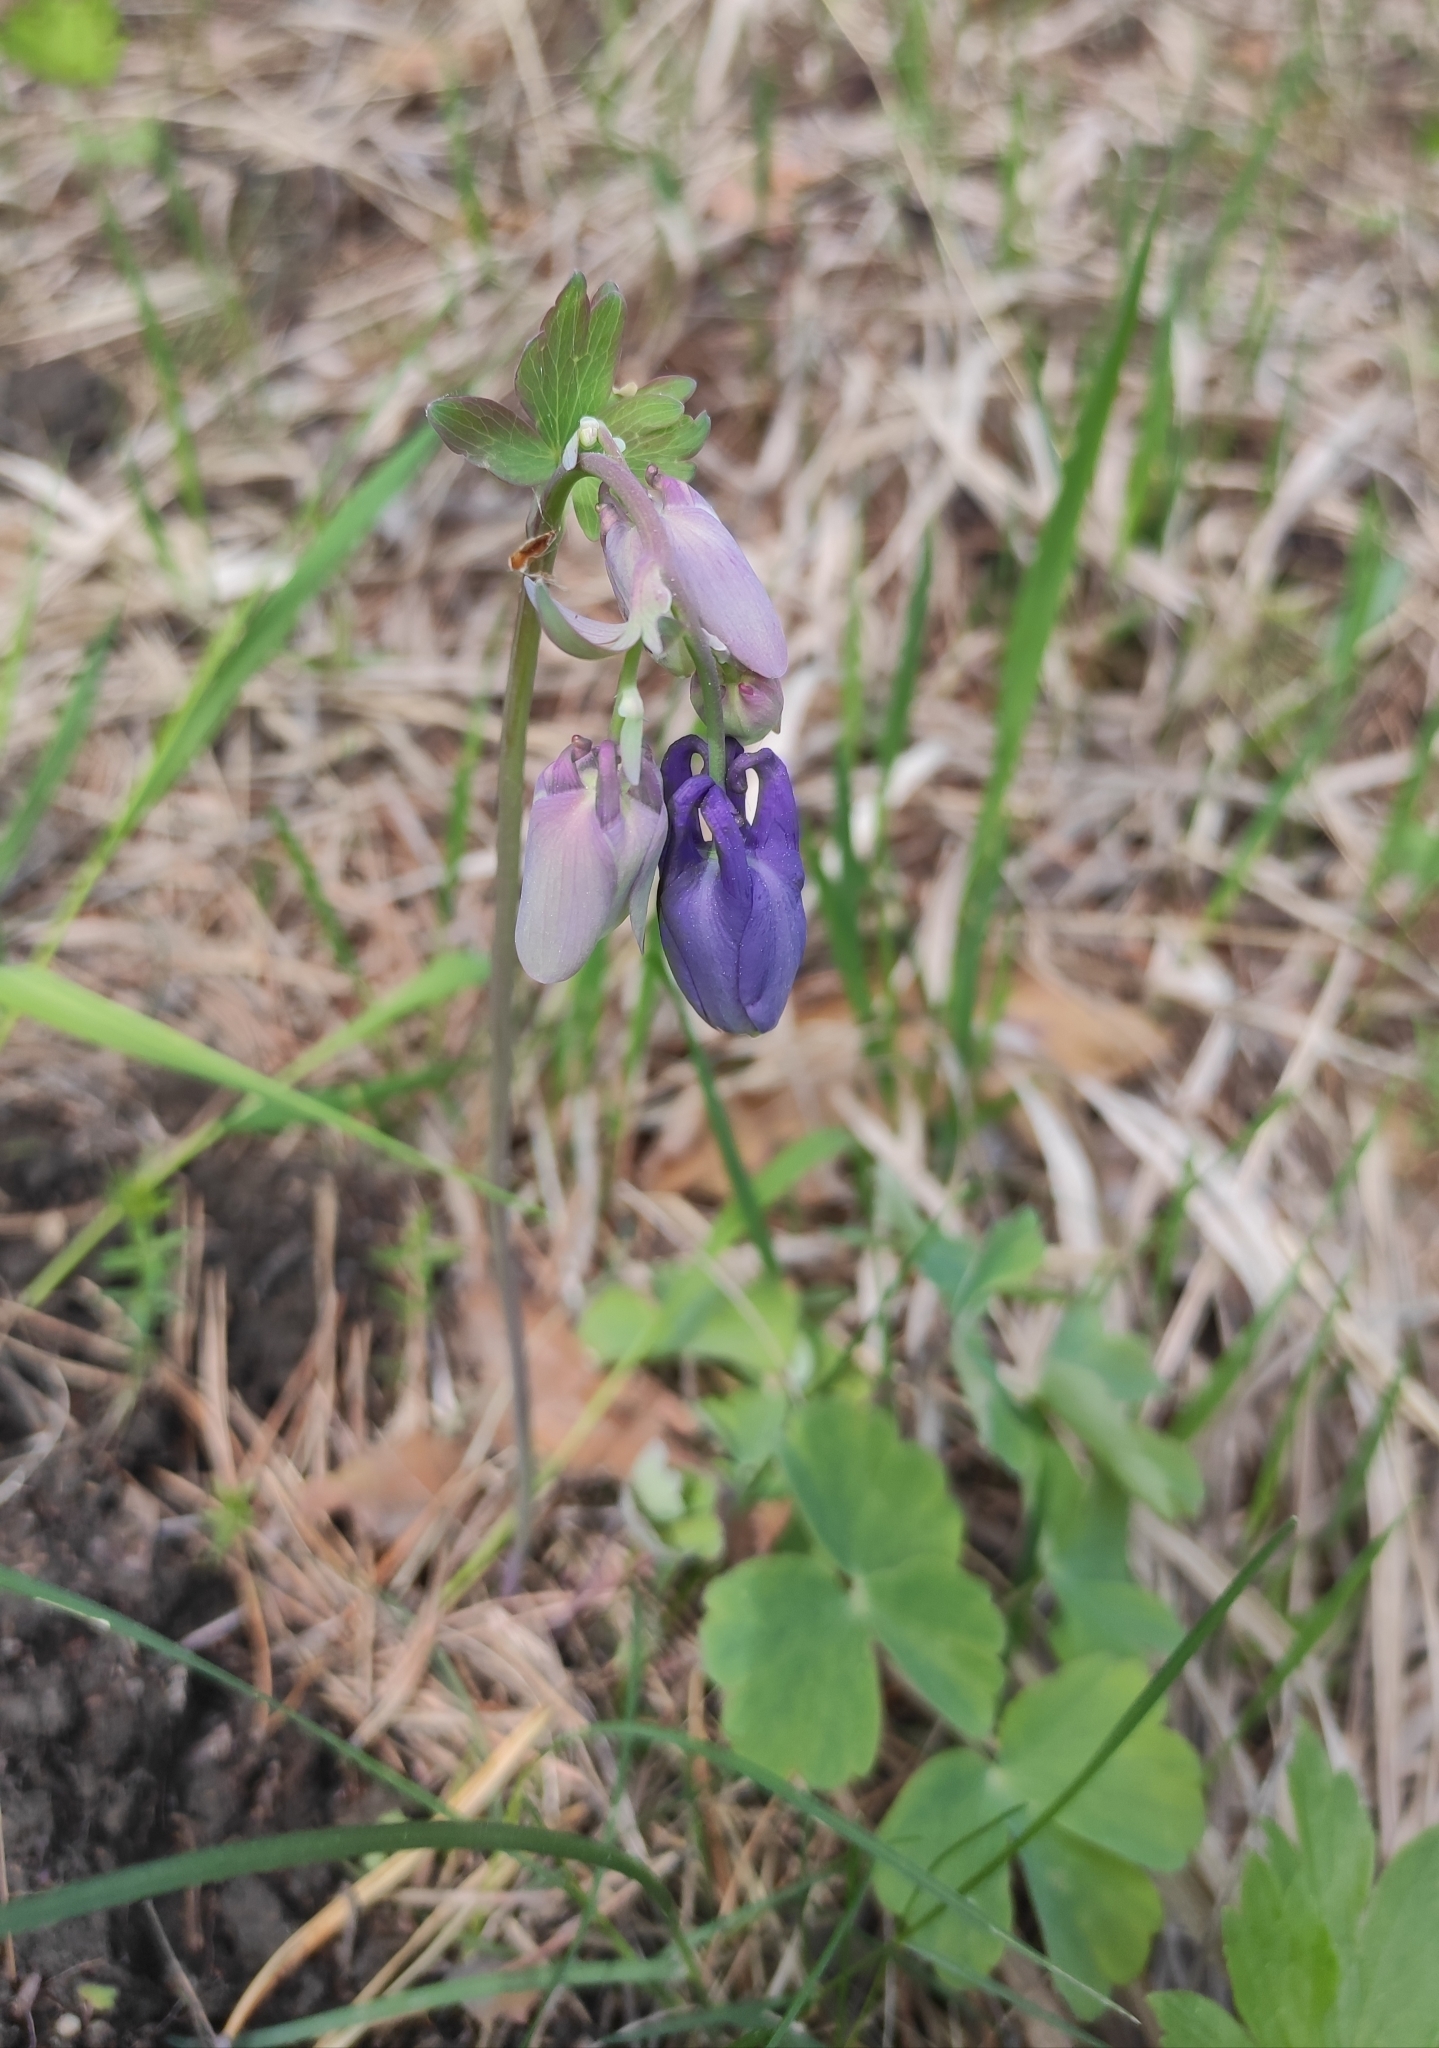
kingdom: Plantae
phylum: Tracheophyta
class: Magnoliopsida
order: Ranunculales
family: Ranunculaceae
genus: Aquilegia
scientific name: Aquilegia sibirica
